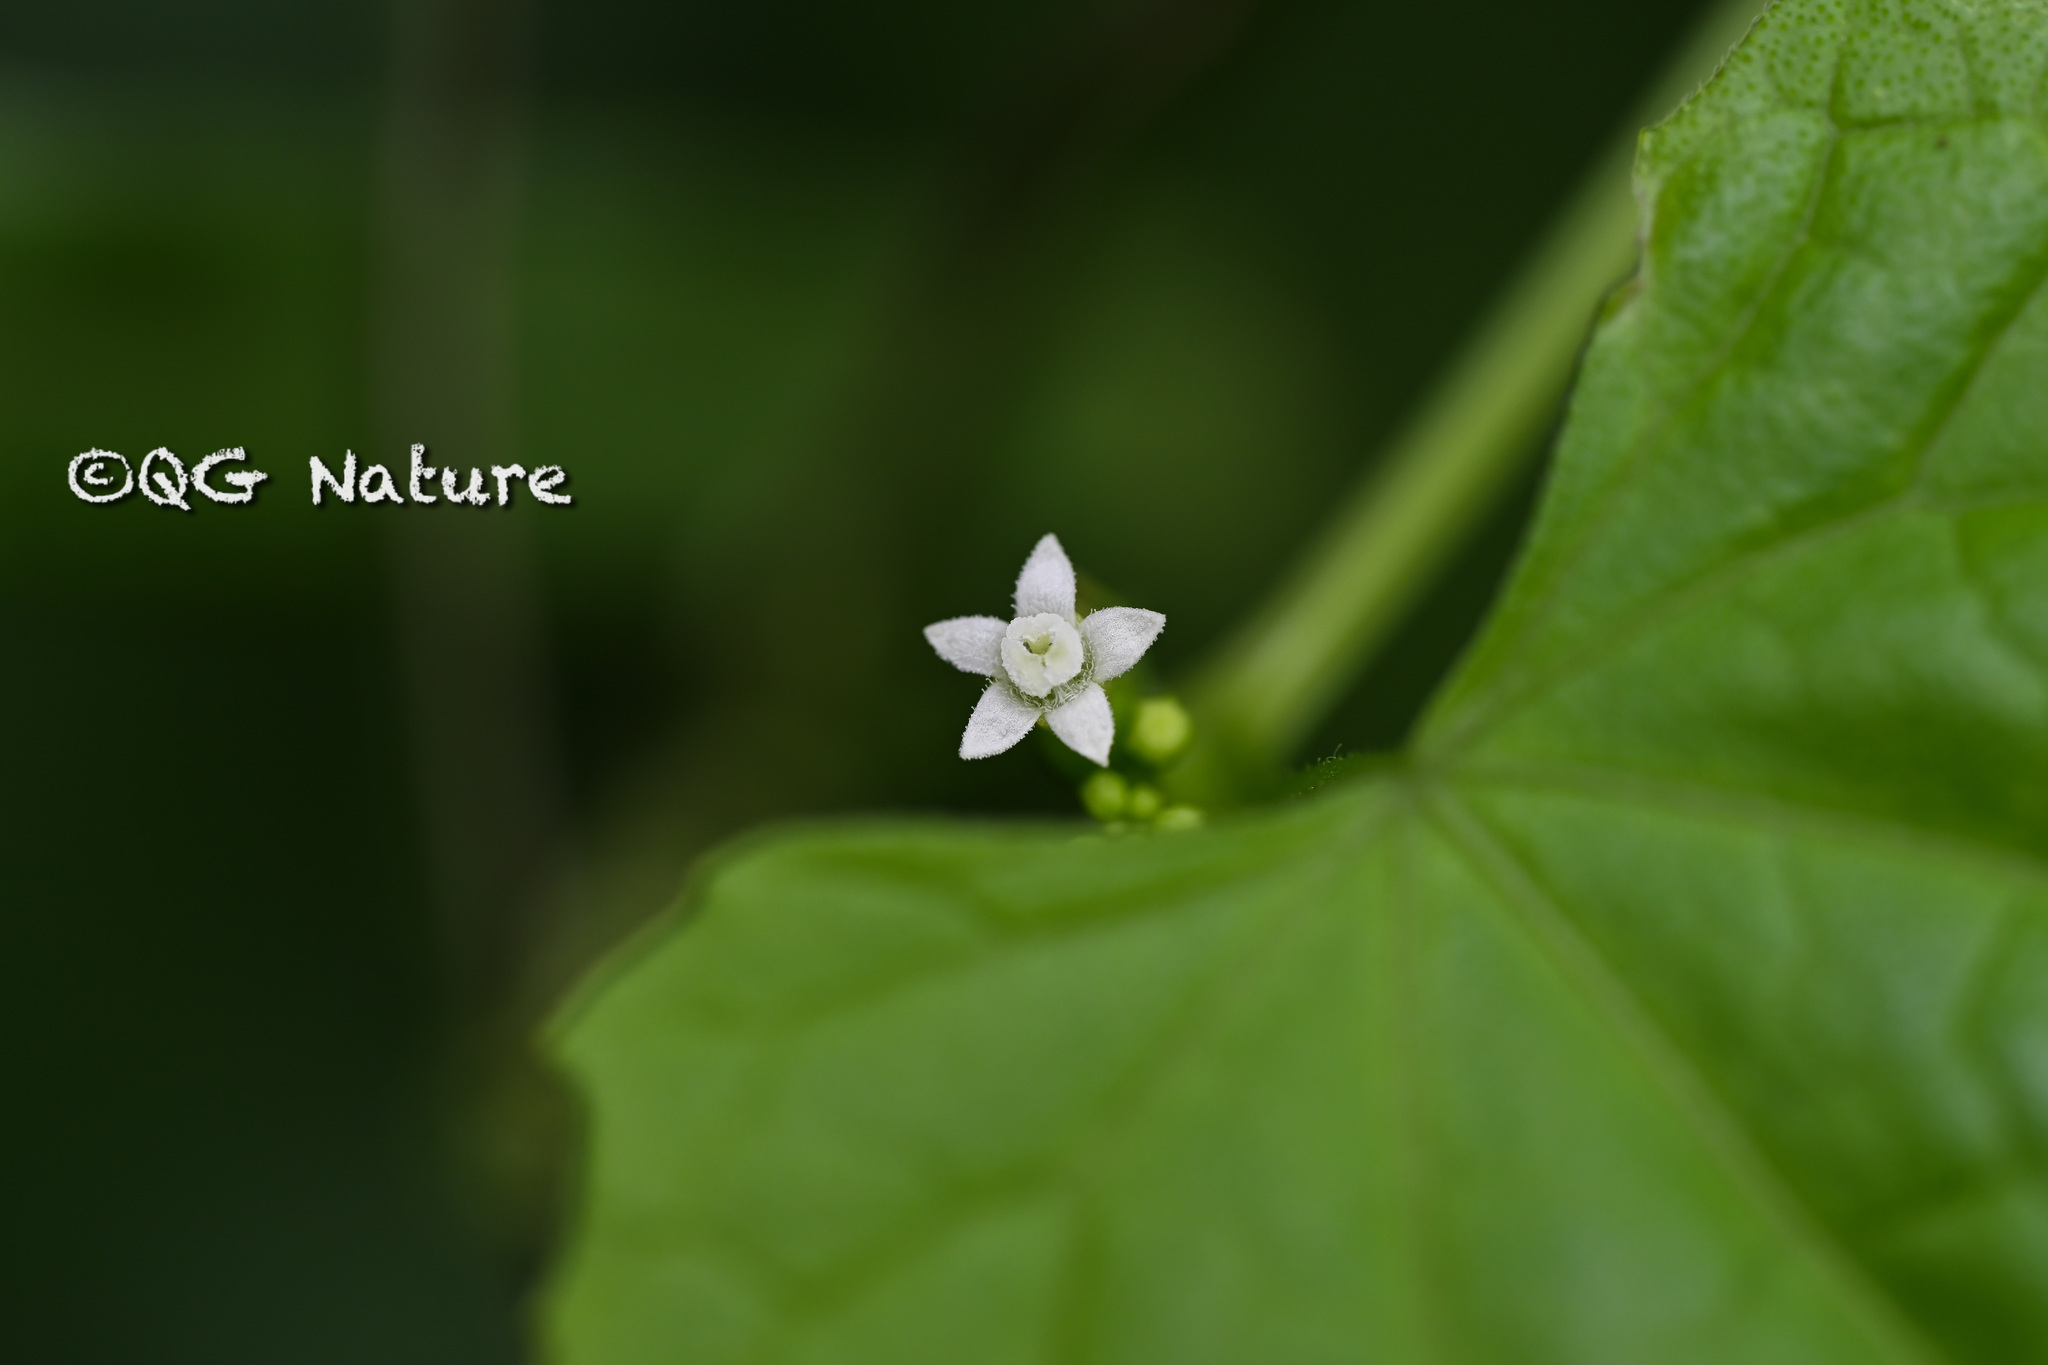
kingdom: Plantae
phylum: Tracheophyta
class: Magnoliopsida
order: Cucurbitales
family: Cucurbitaceae
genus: Zehneria
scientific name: Zehneria bodinieri
